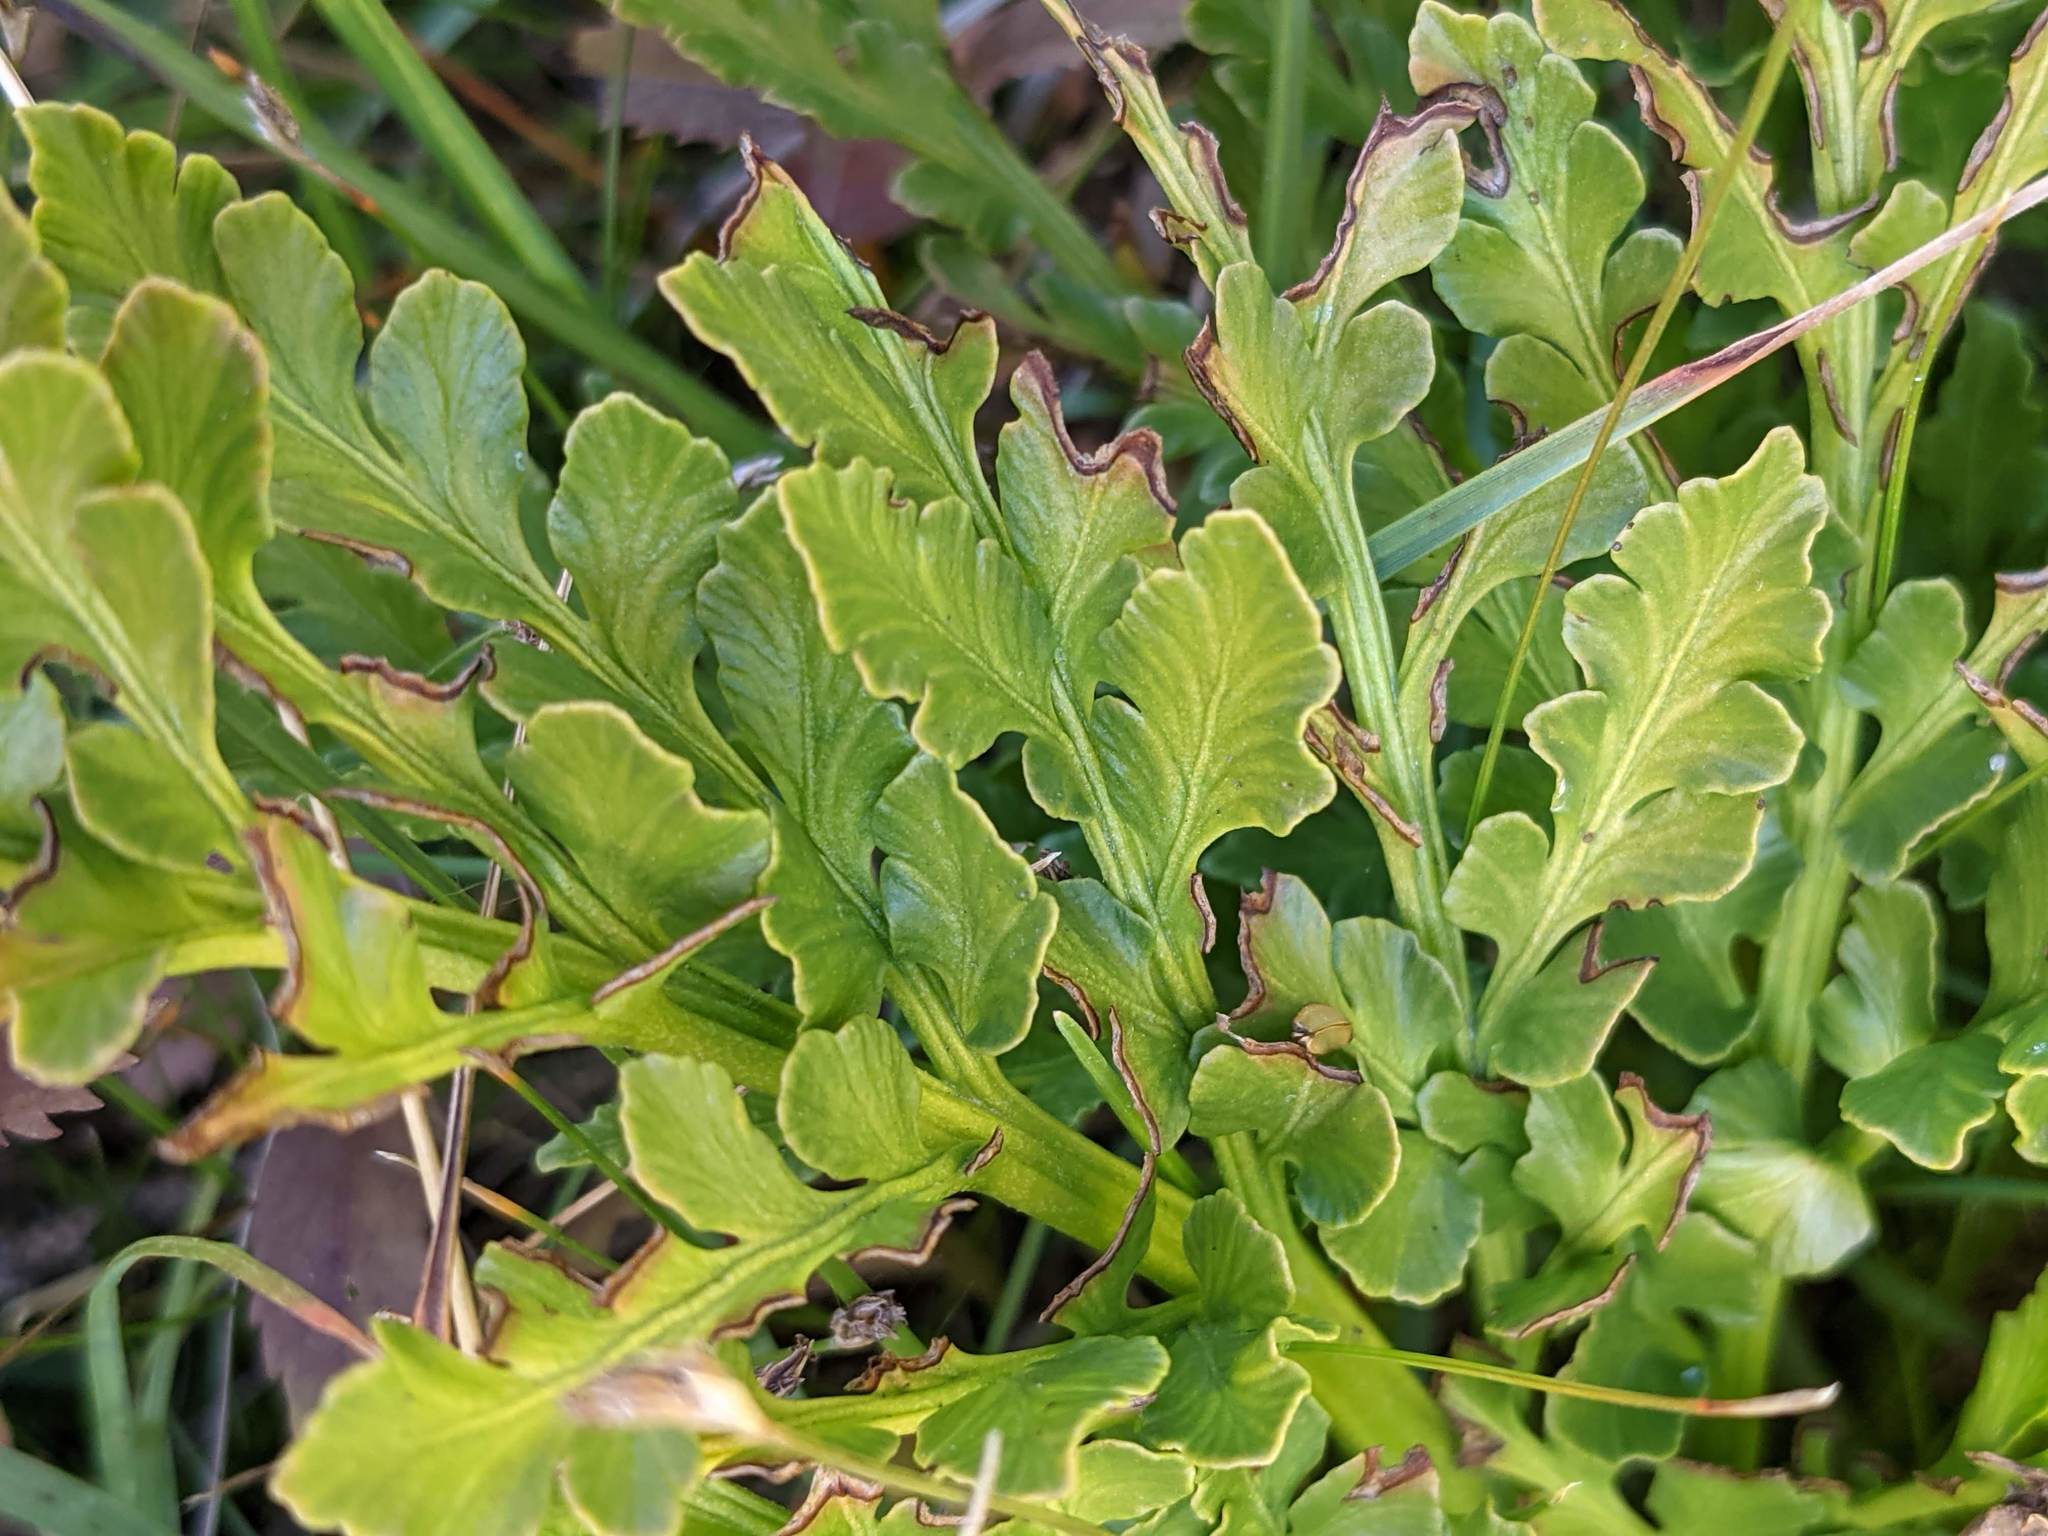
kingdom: Plantae
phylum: Tracheophyta
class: Polypodiopsida
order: Ophioglossales
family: Ophioglossaceae
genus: Sceptridium
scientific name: Sceptridium multifidum
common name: Leathery grape fern
